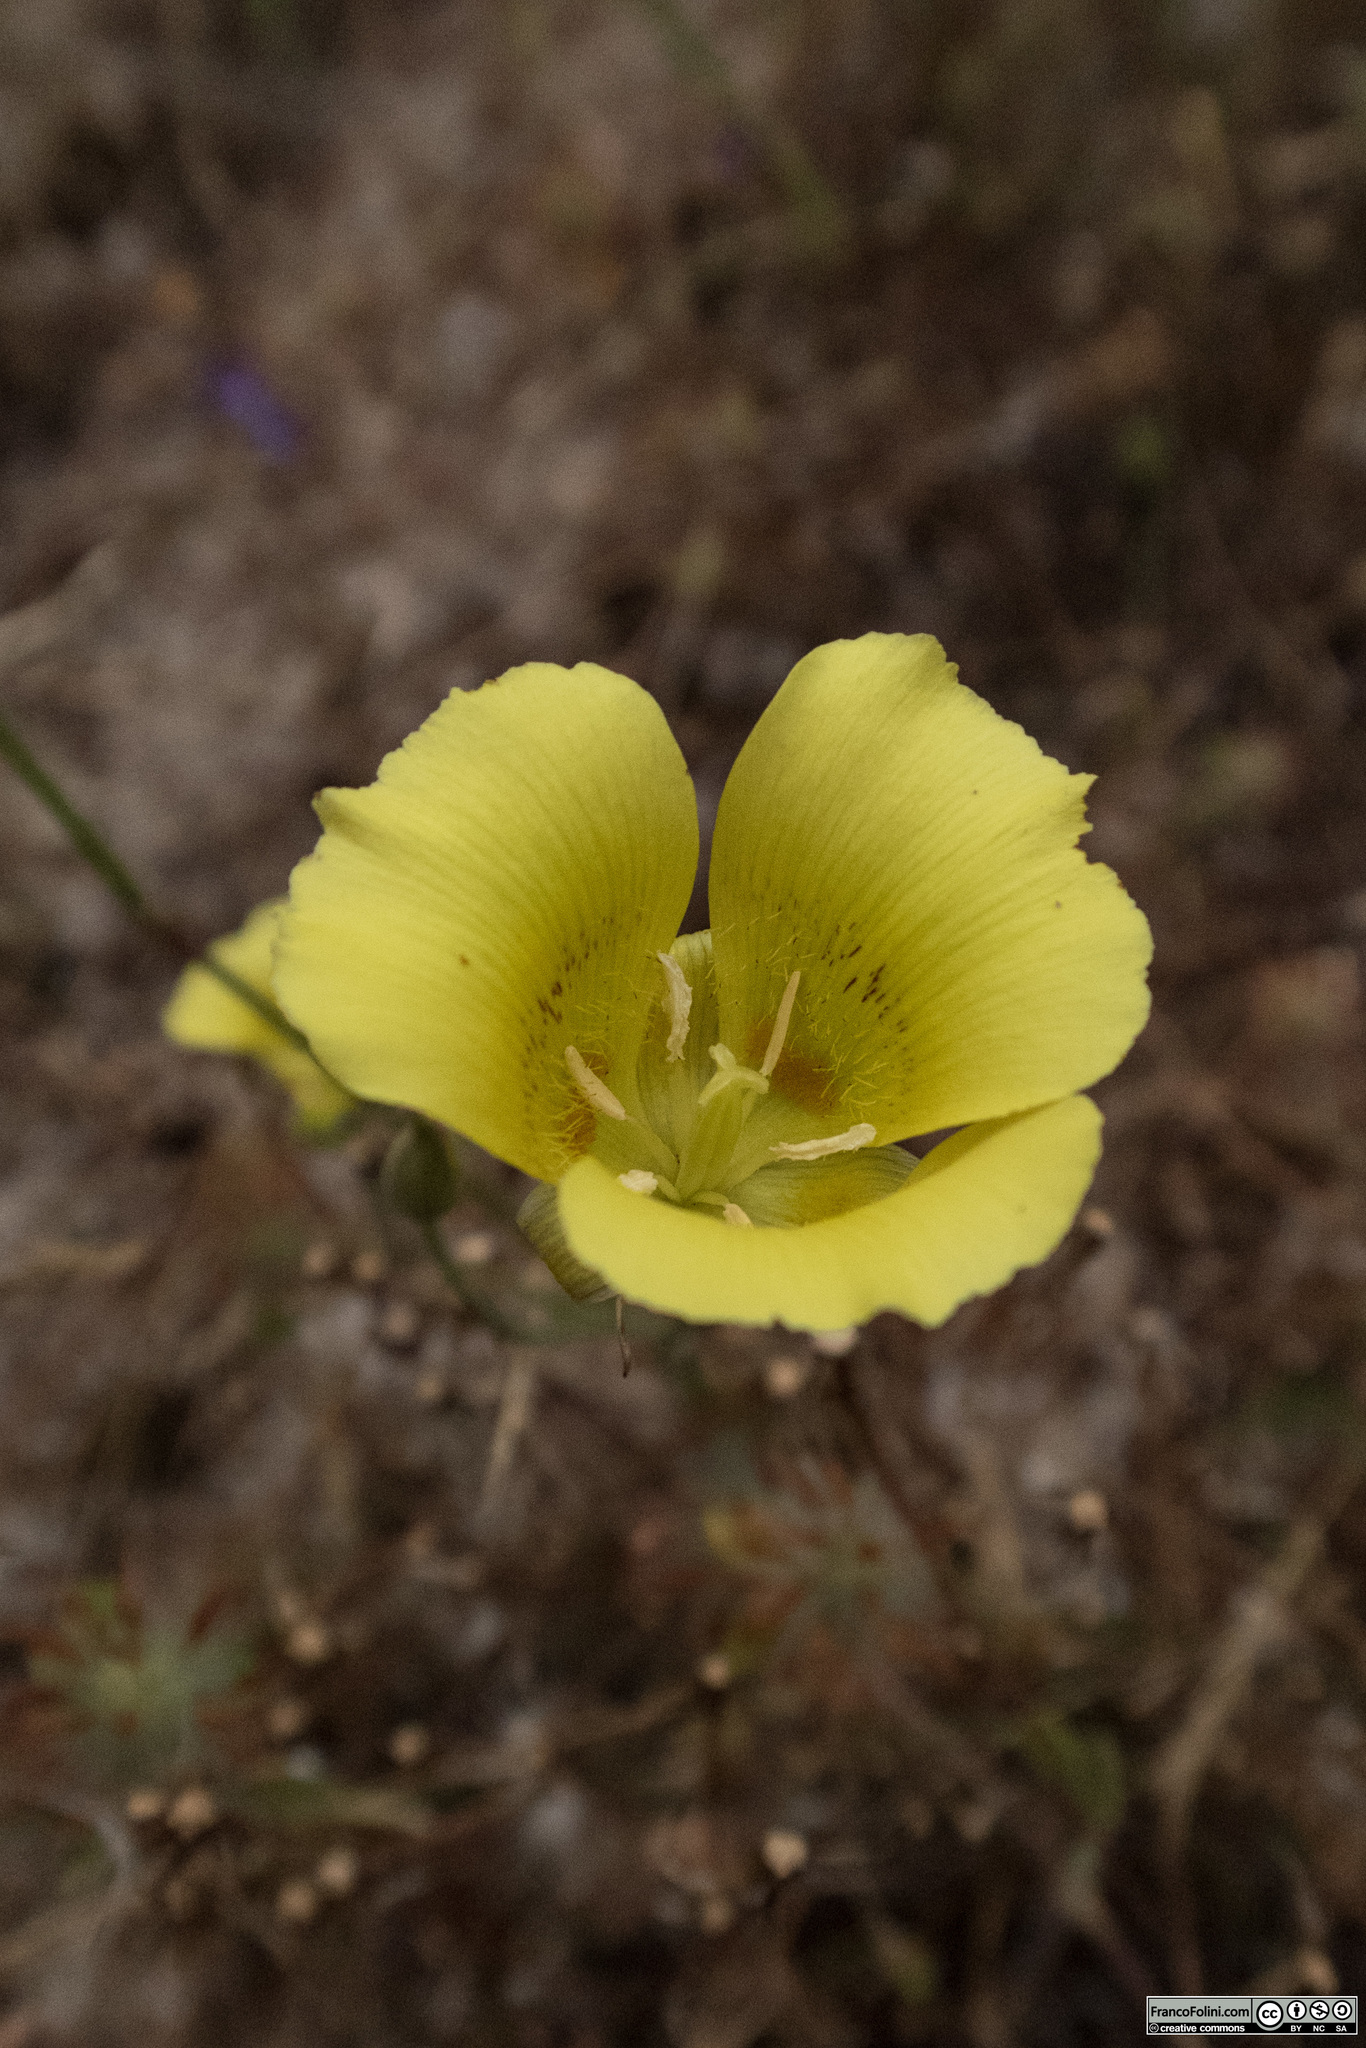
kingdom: Plantae
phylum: Tracheophyta
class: Liliopsida
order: Liliales
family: Liliaceae
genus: Calochortus
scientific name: Calochortus luteus
